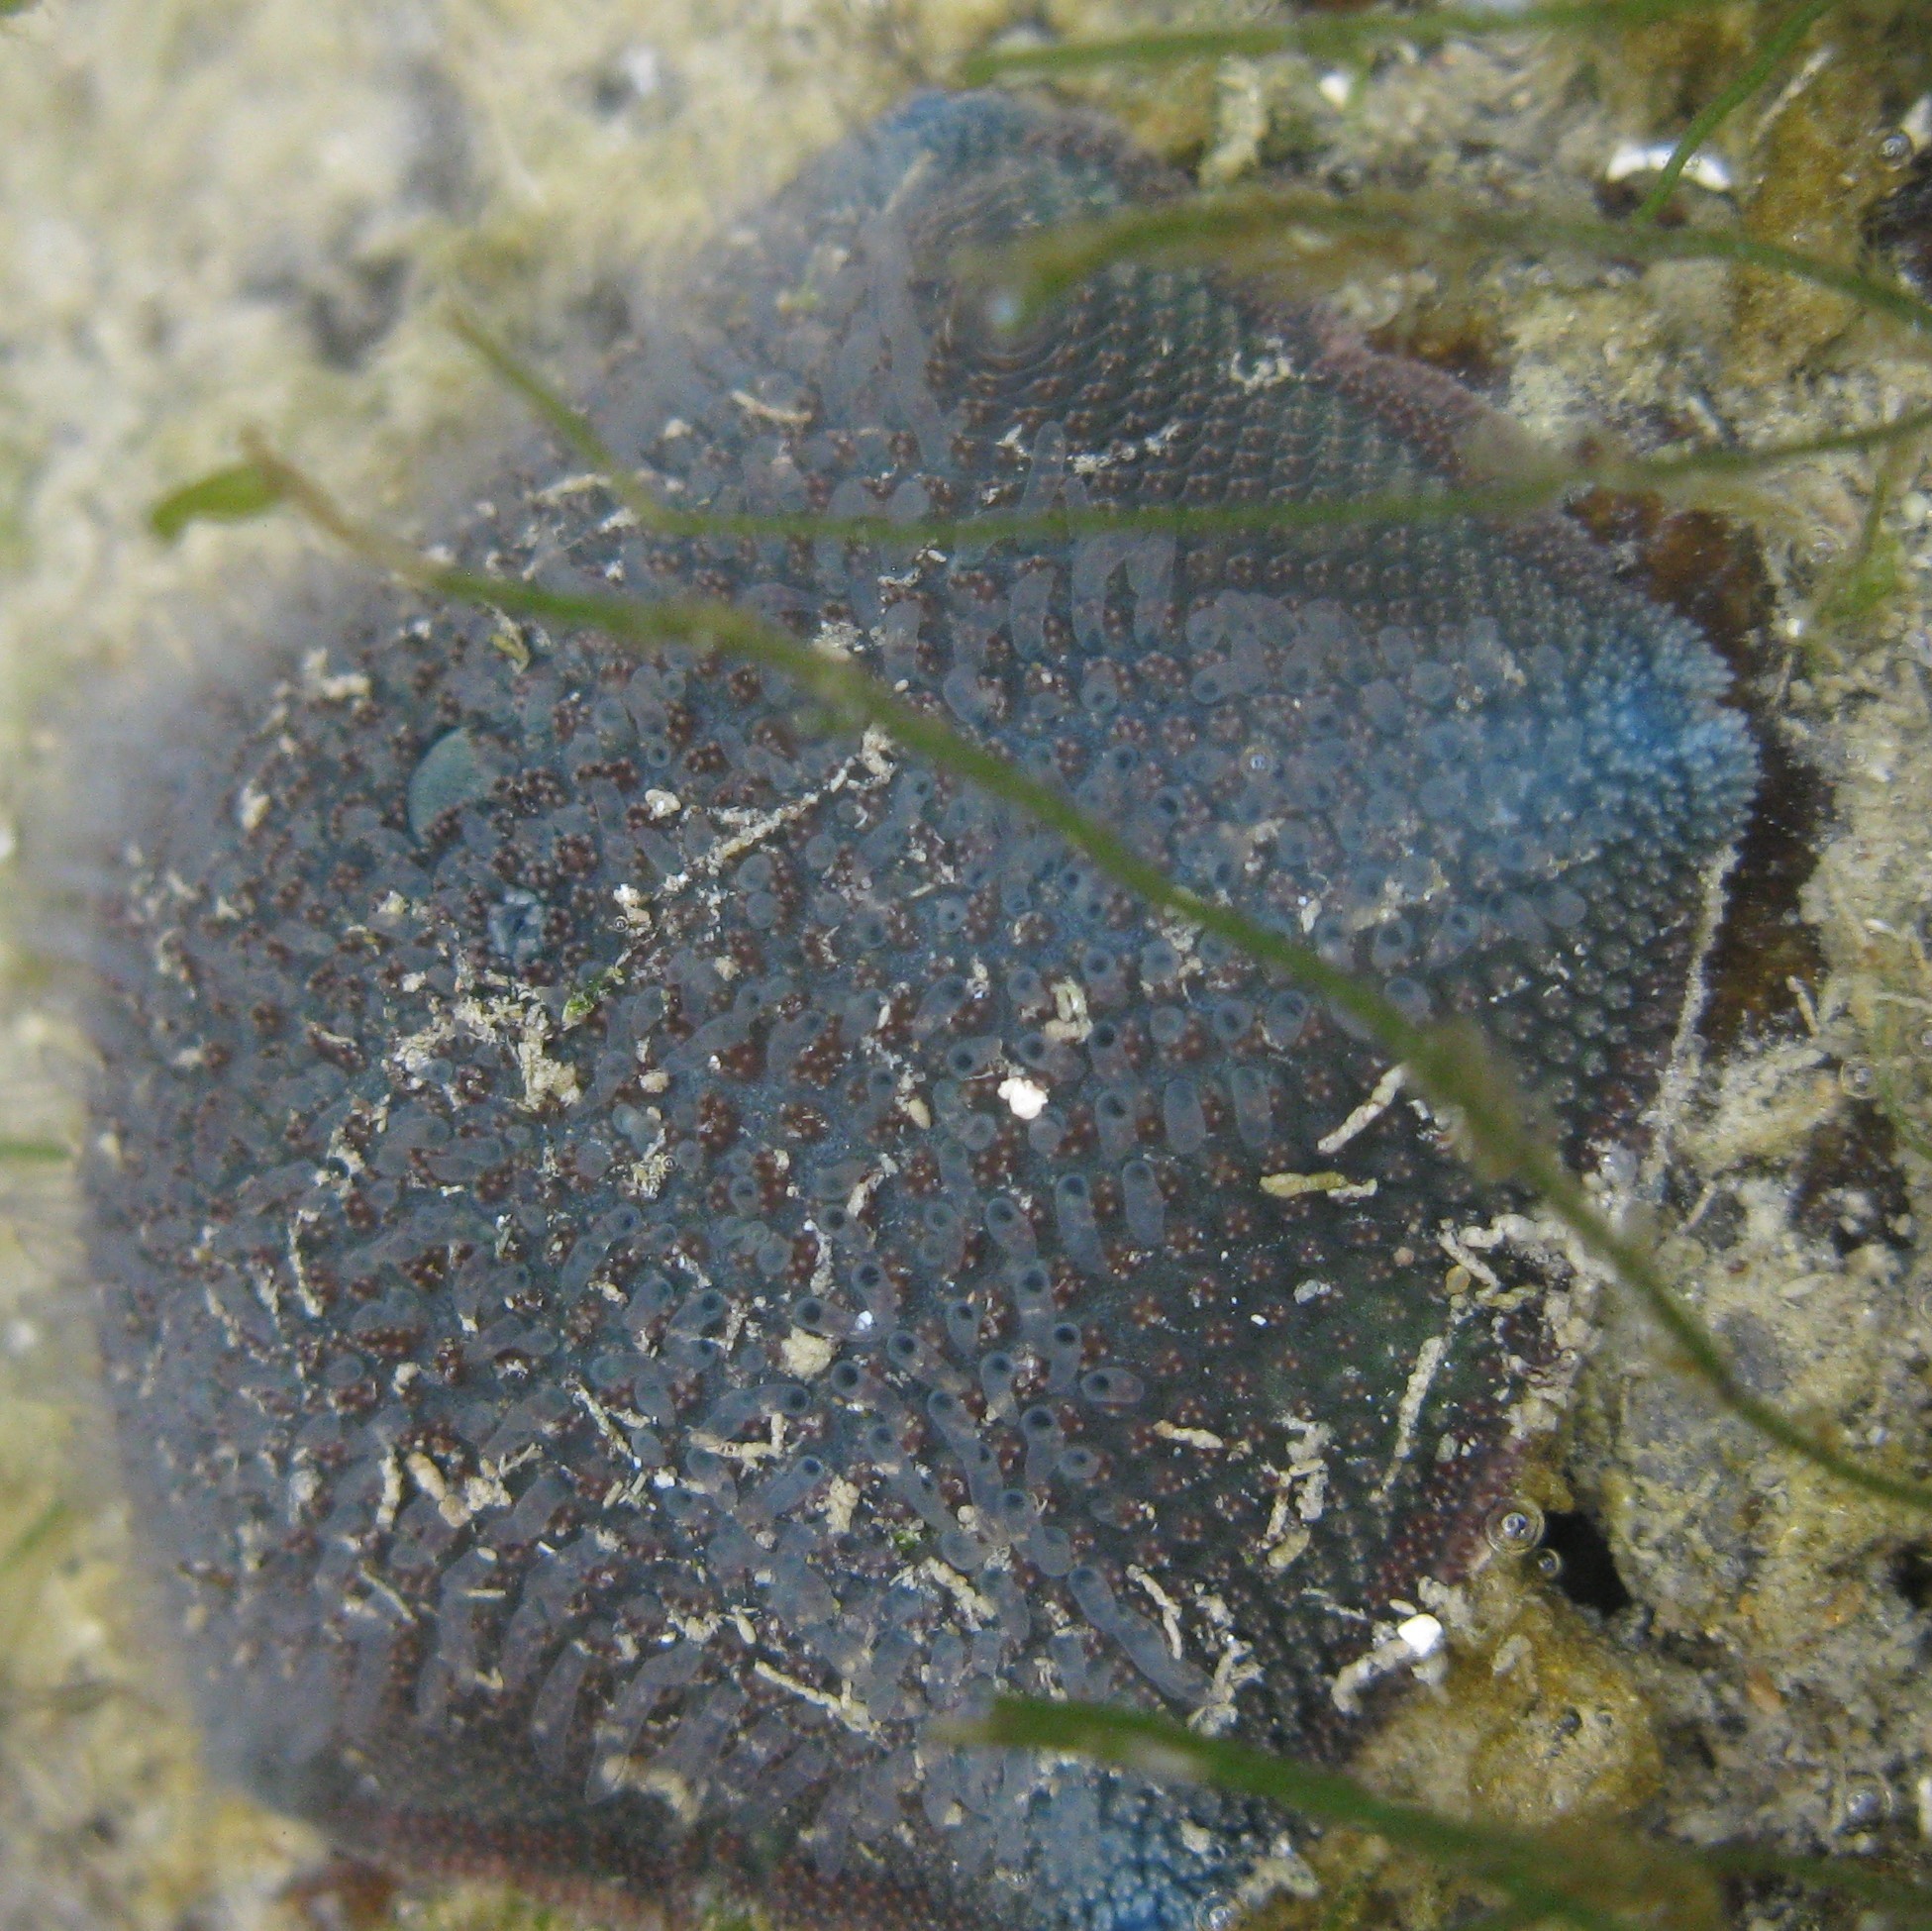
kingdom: Animalia
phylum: Echinodermata
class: Asteroidea
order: Valvatida
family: Asterinidae
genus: Patiriella
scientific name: Patiriella regularis
